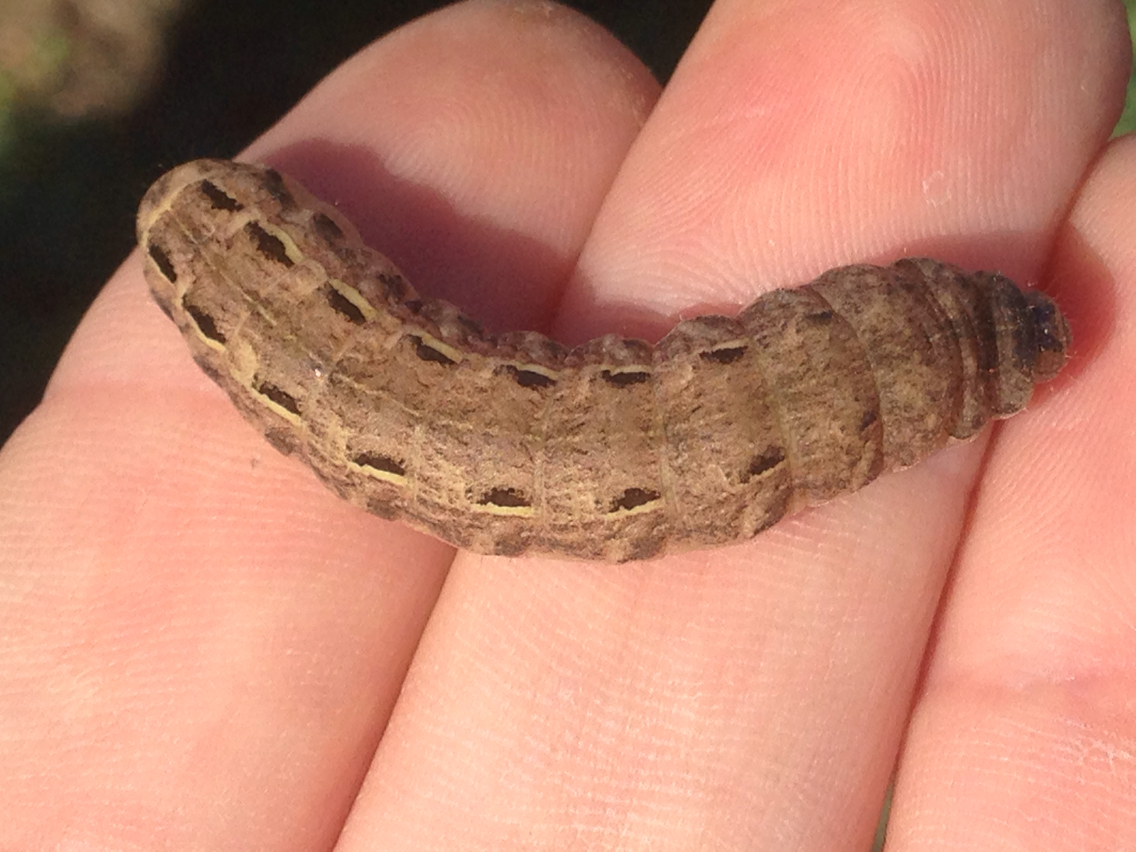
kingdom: Animalia
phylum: Arthropoda
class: Insecta
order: Lepidoptera
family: Noctuidae
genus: Noctua
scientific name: Noctua pronuba
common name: Large yellow underwing
